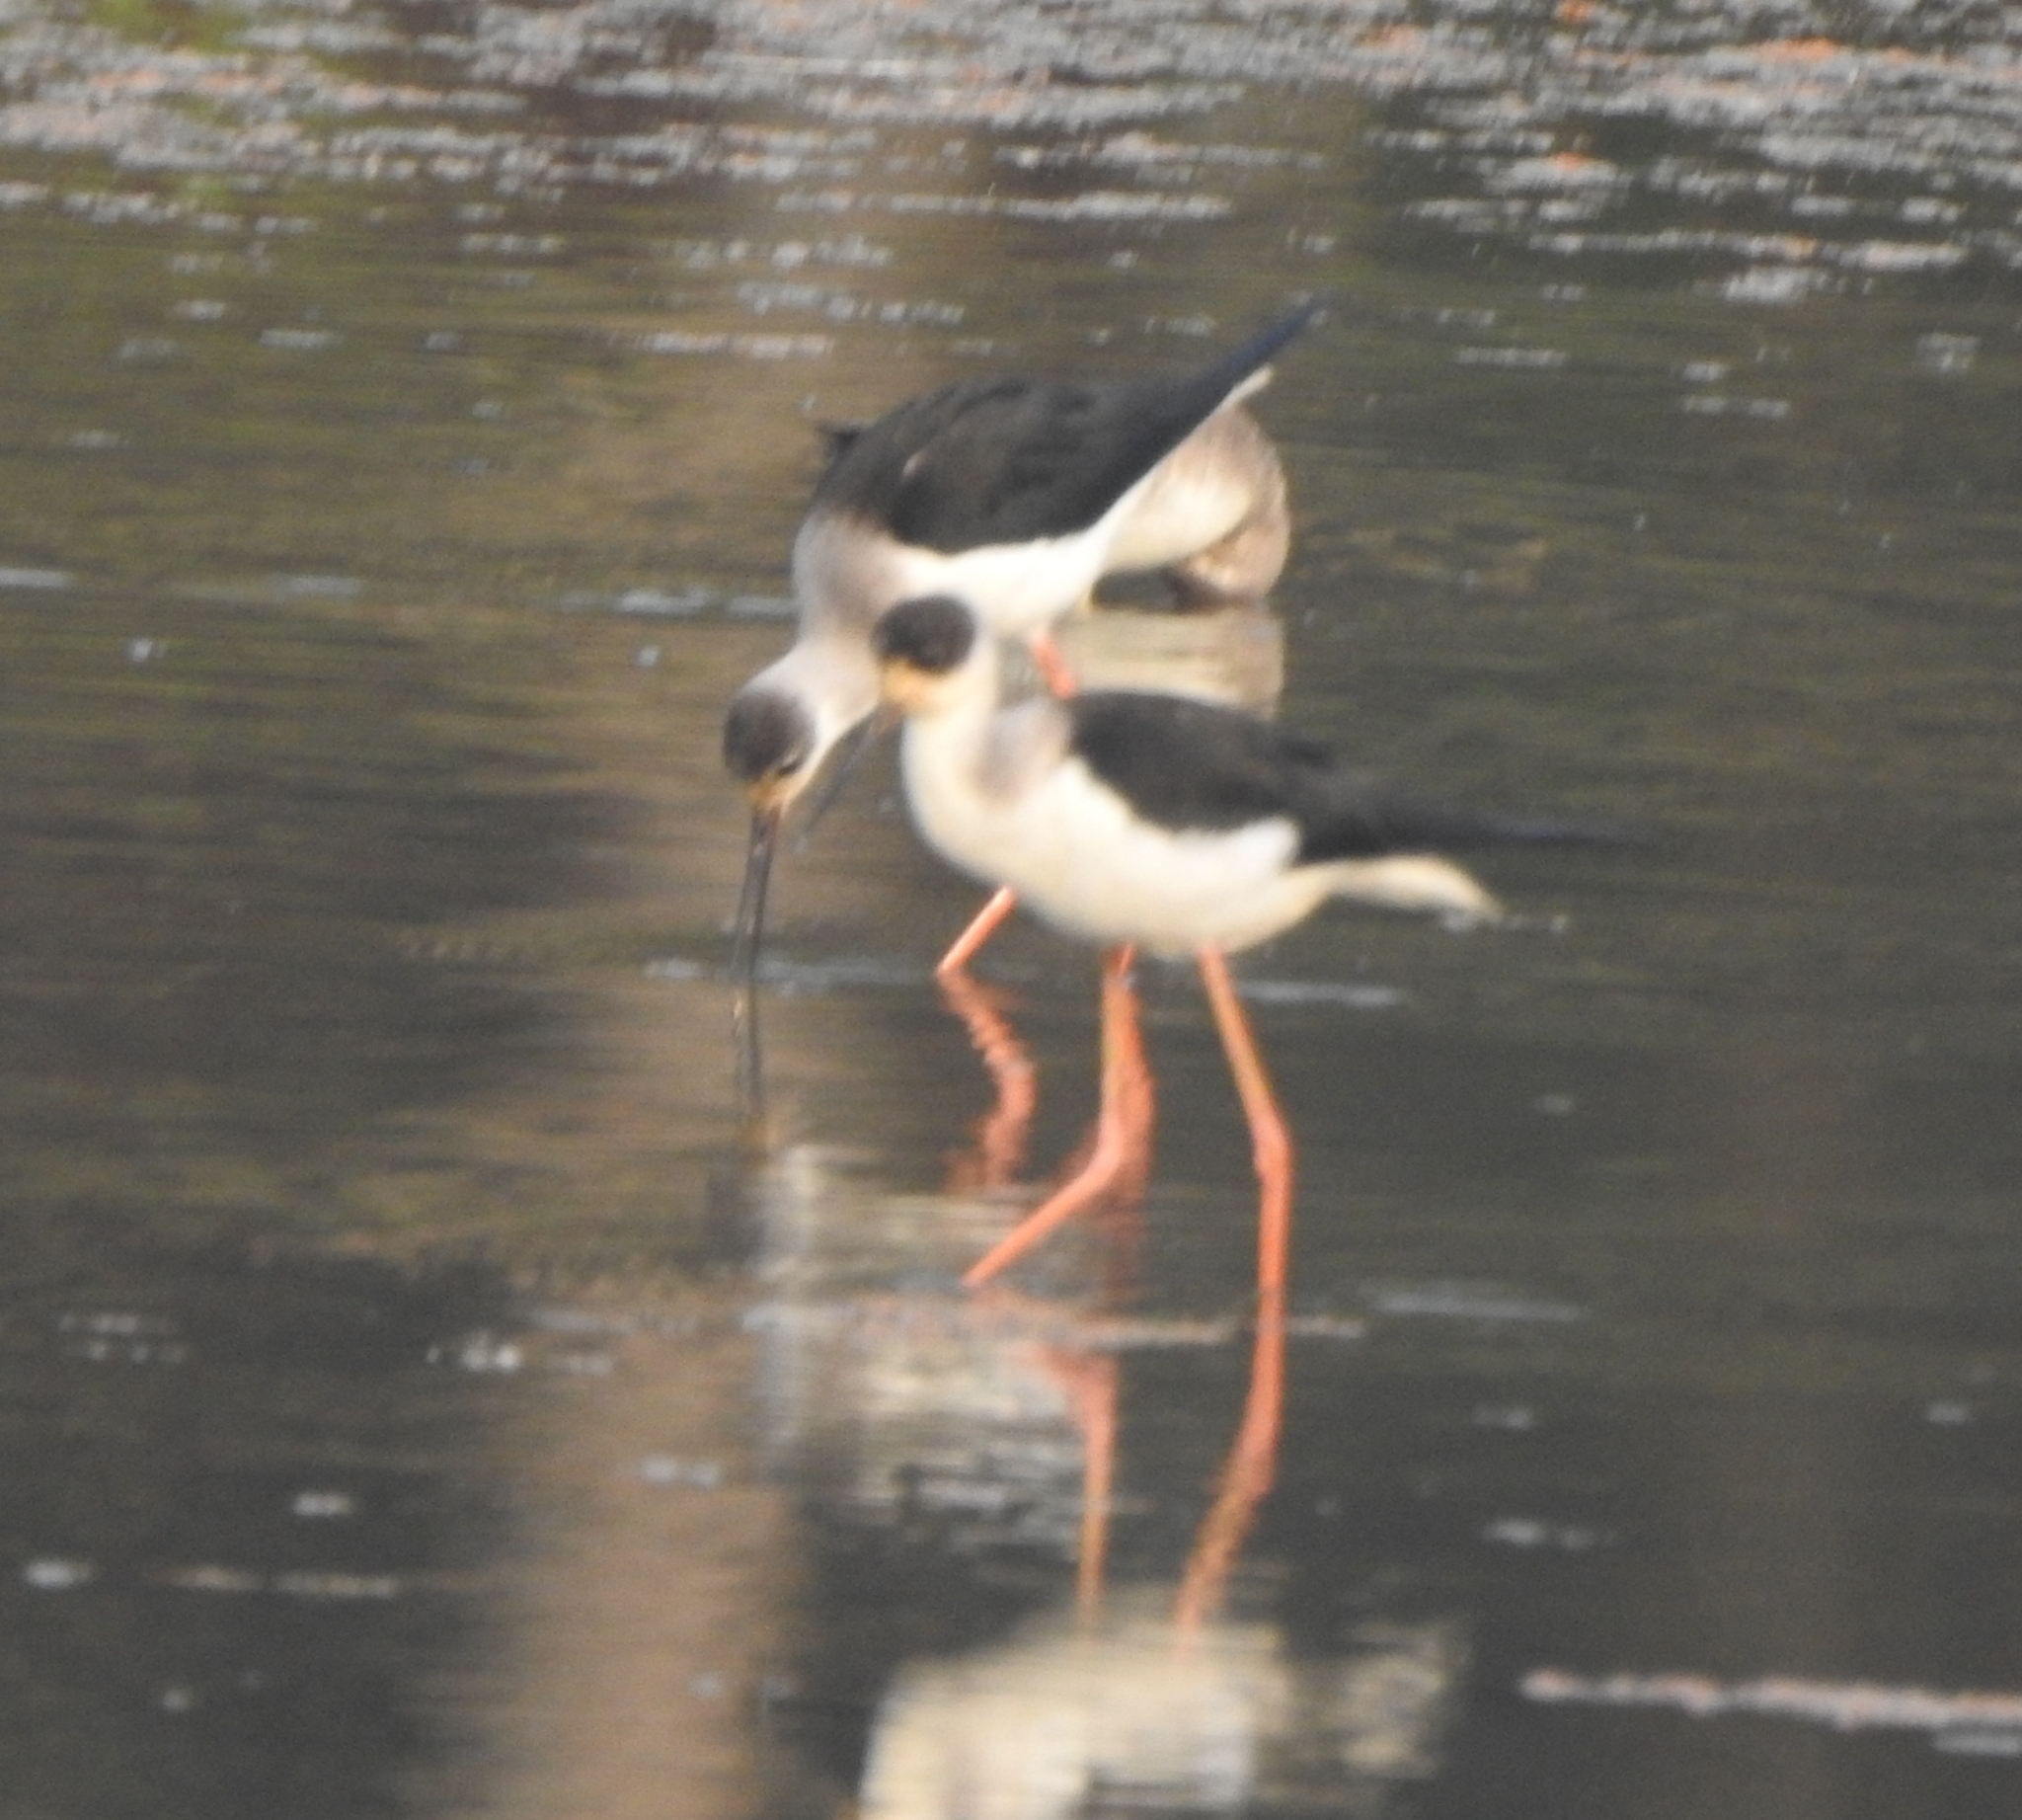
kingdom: Animalia
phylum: Chordata
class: Aves
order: Charadriiformes
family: Recurvirostridae
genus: Himantopus
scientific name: Himantopus himantopus
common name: Black-winged stilt
